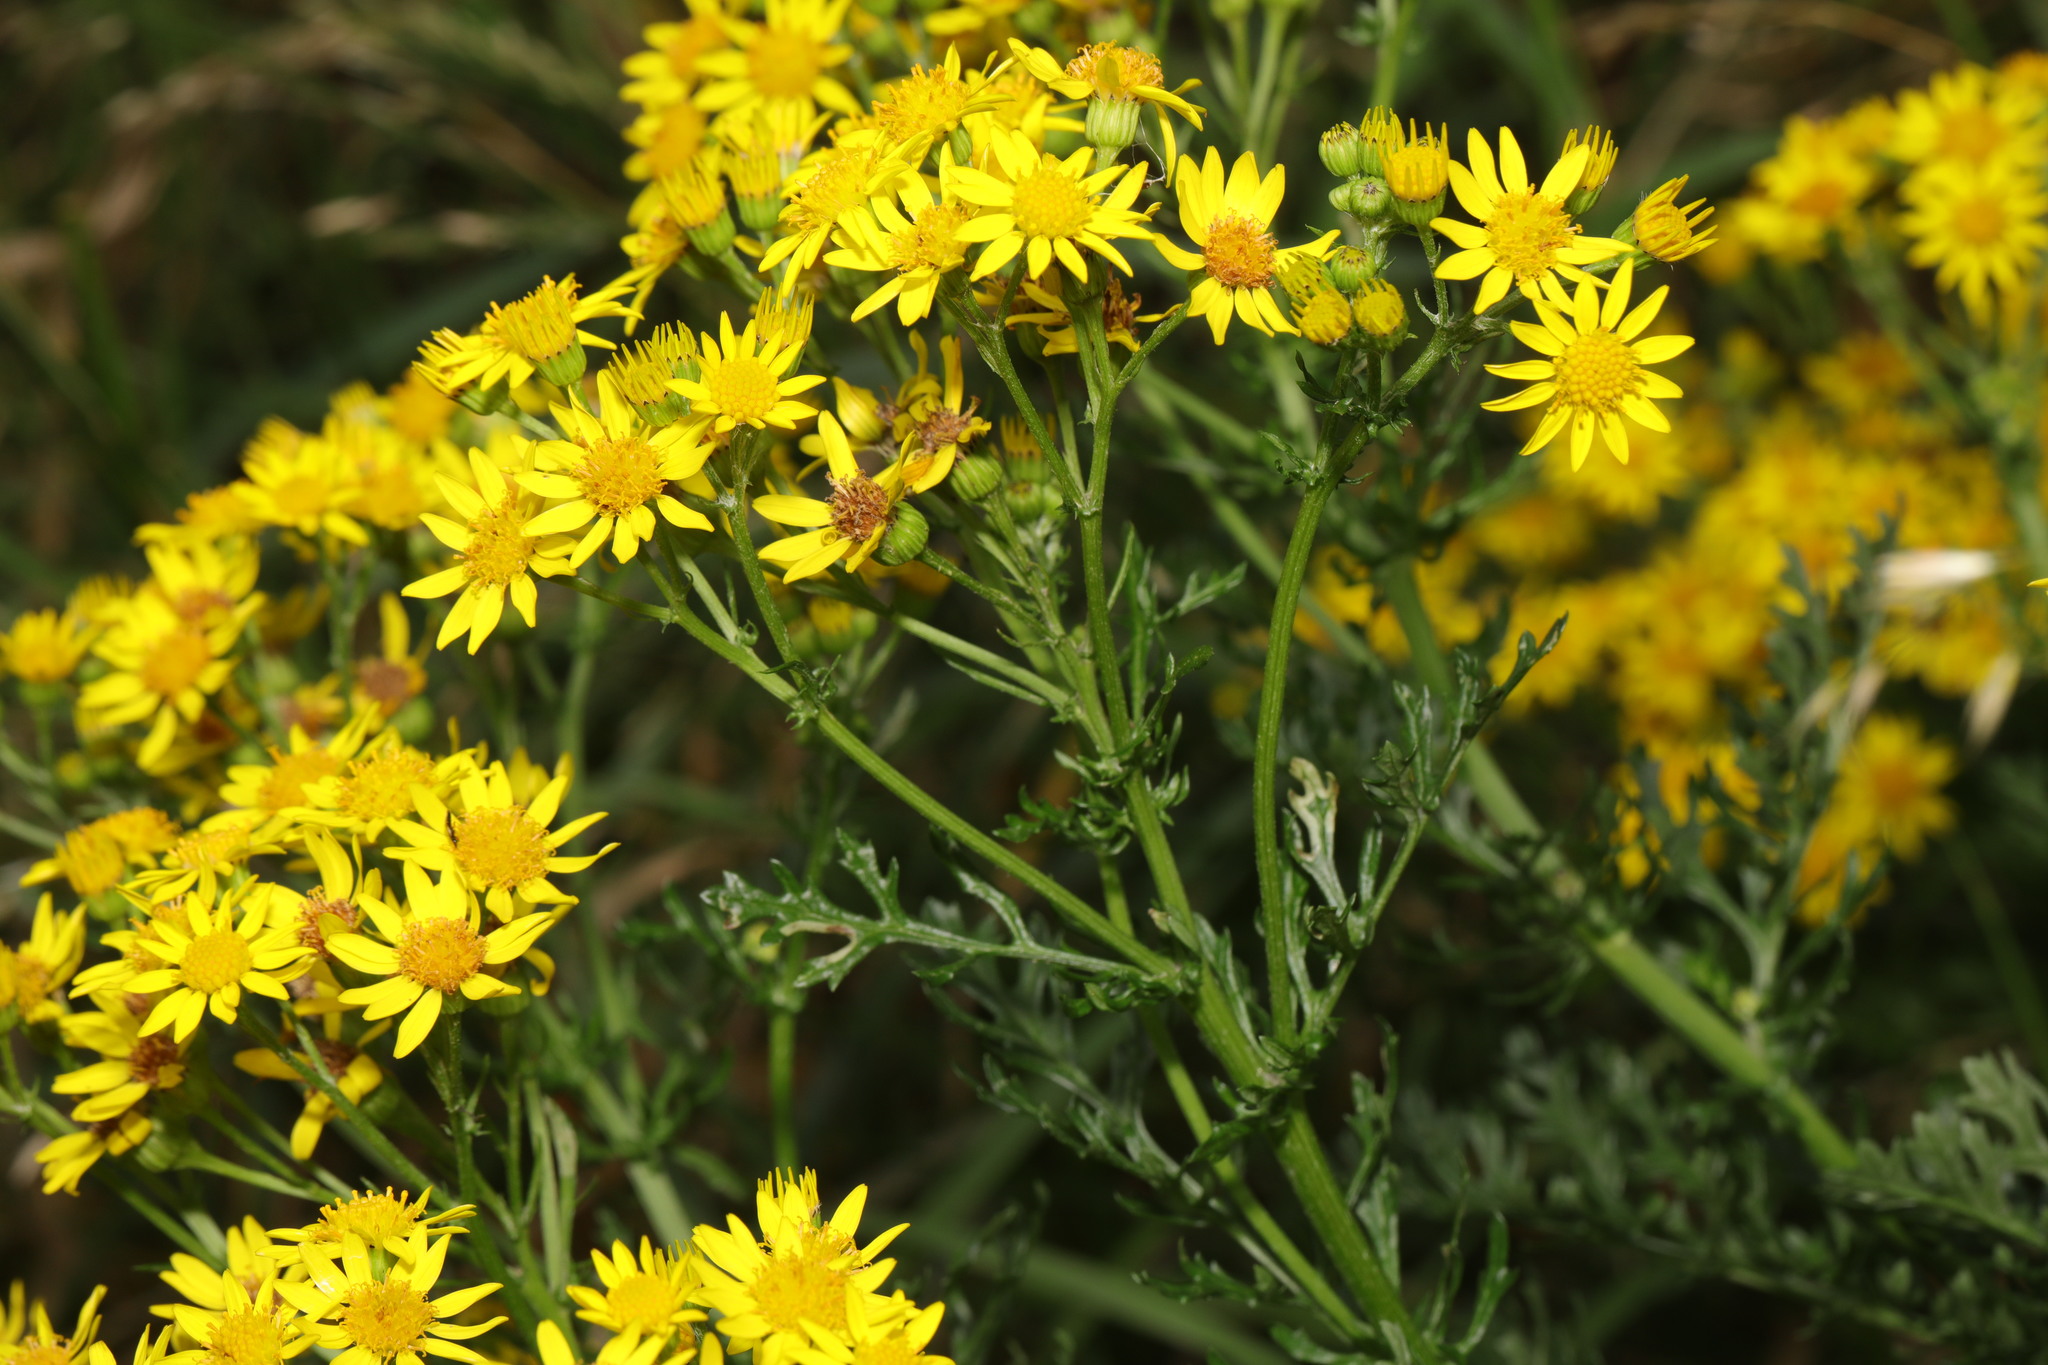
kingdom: Plantae
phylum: Tracheophyta
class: Magnoliopsida
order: Asterales
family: Asteraceae
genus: Jacobaea
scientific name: Jacobaea vulgaris
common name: Stinking willie
